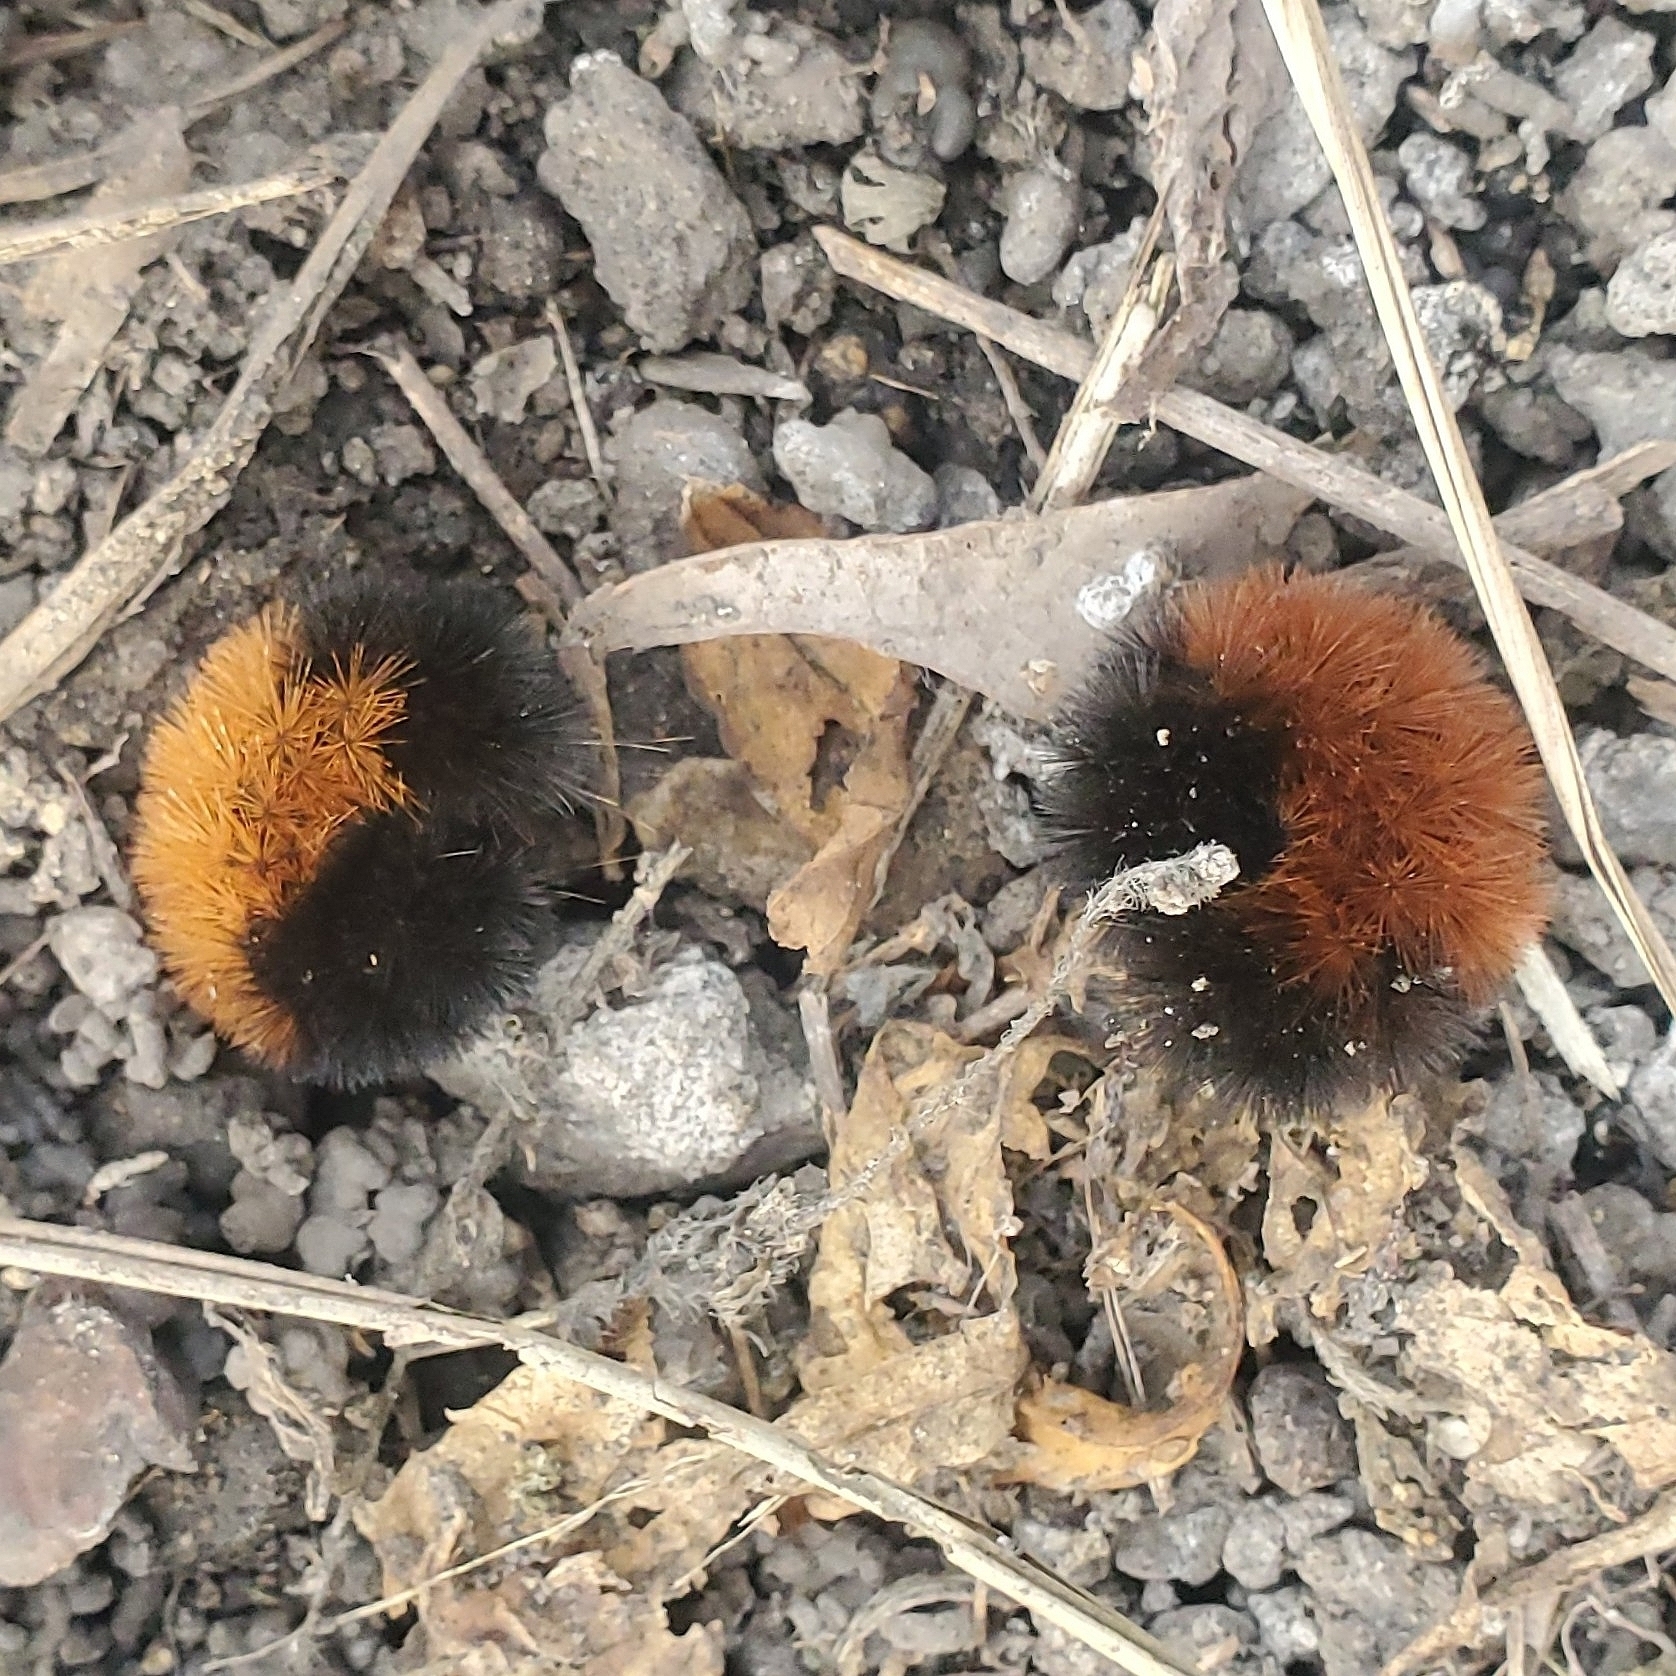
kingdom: Animalia
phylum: Arthropoda
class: Insecta
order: Lepidoptera
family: Erebidae
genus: Pyrrharctia
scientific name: Pyrrharctia isabella
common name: Isabella tiger moth
